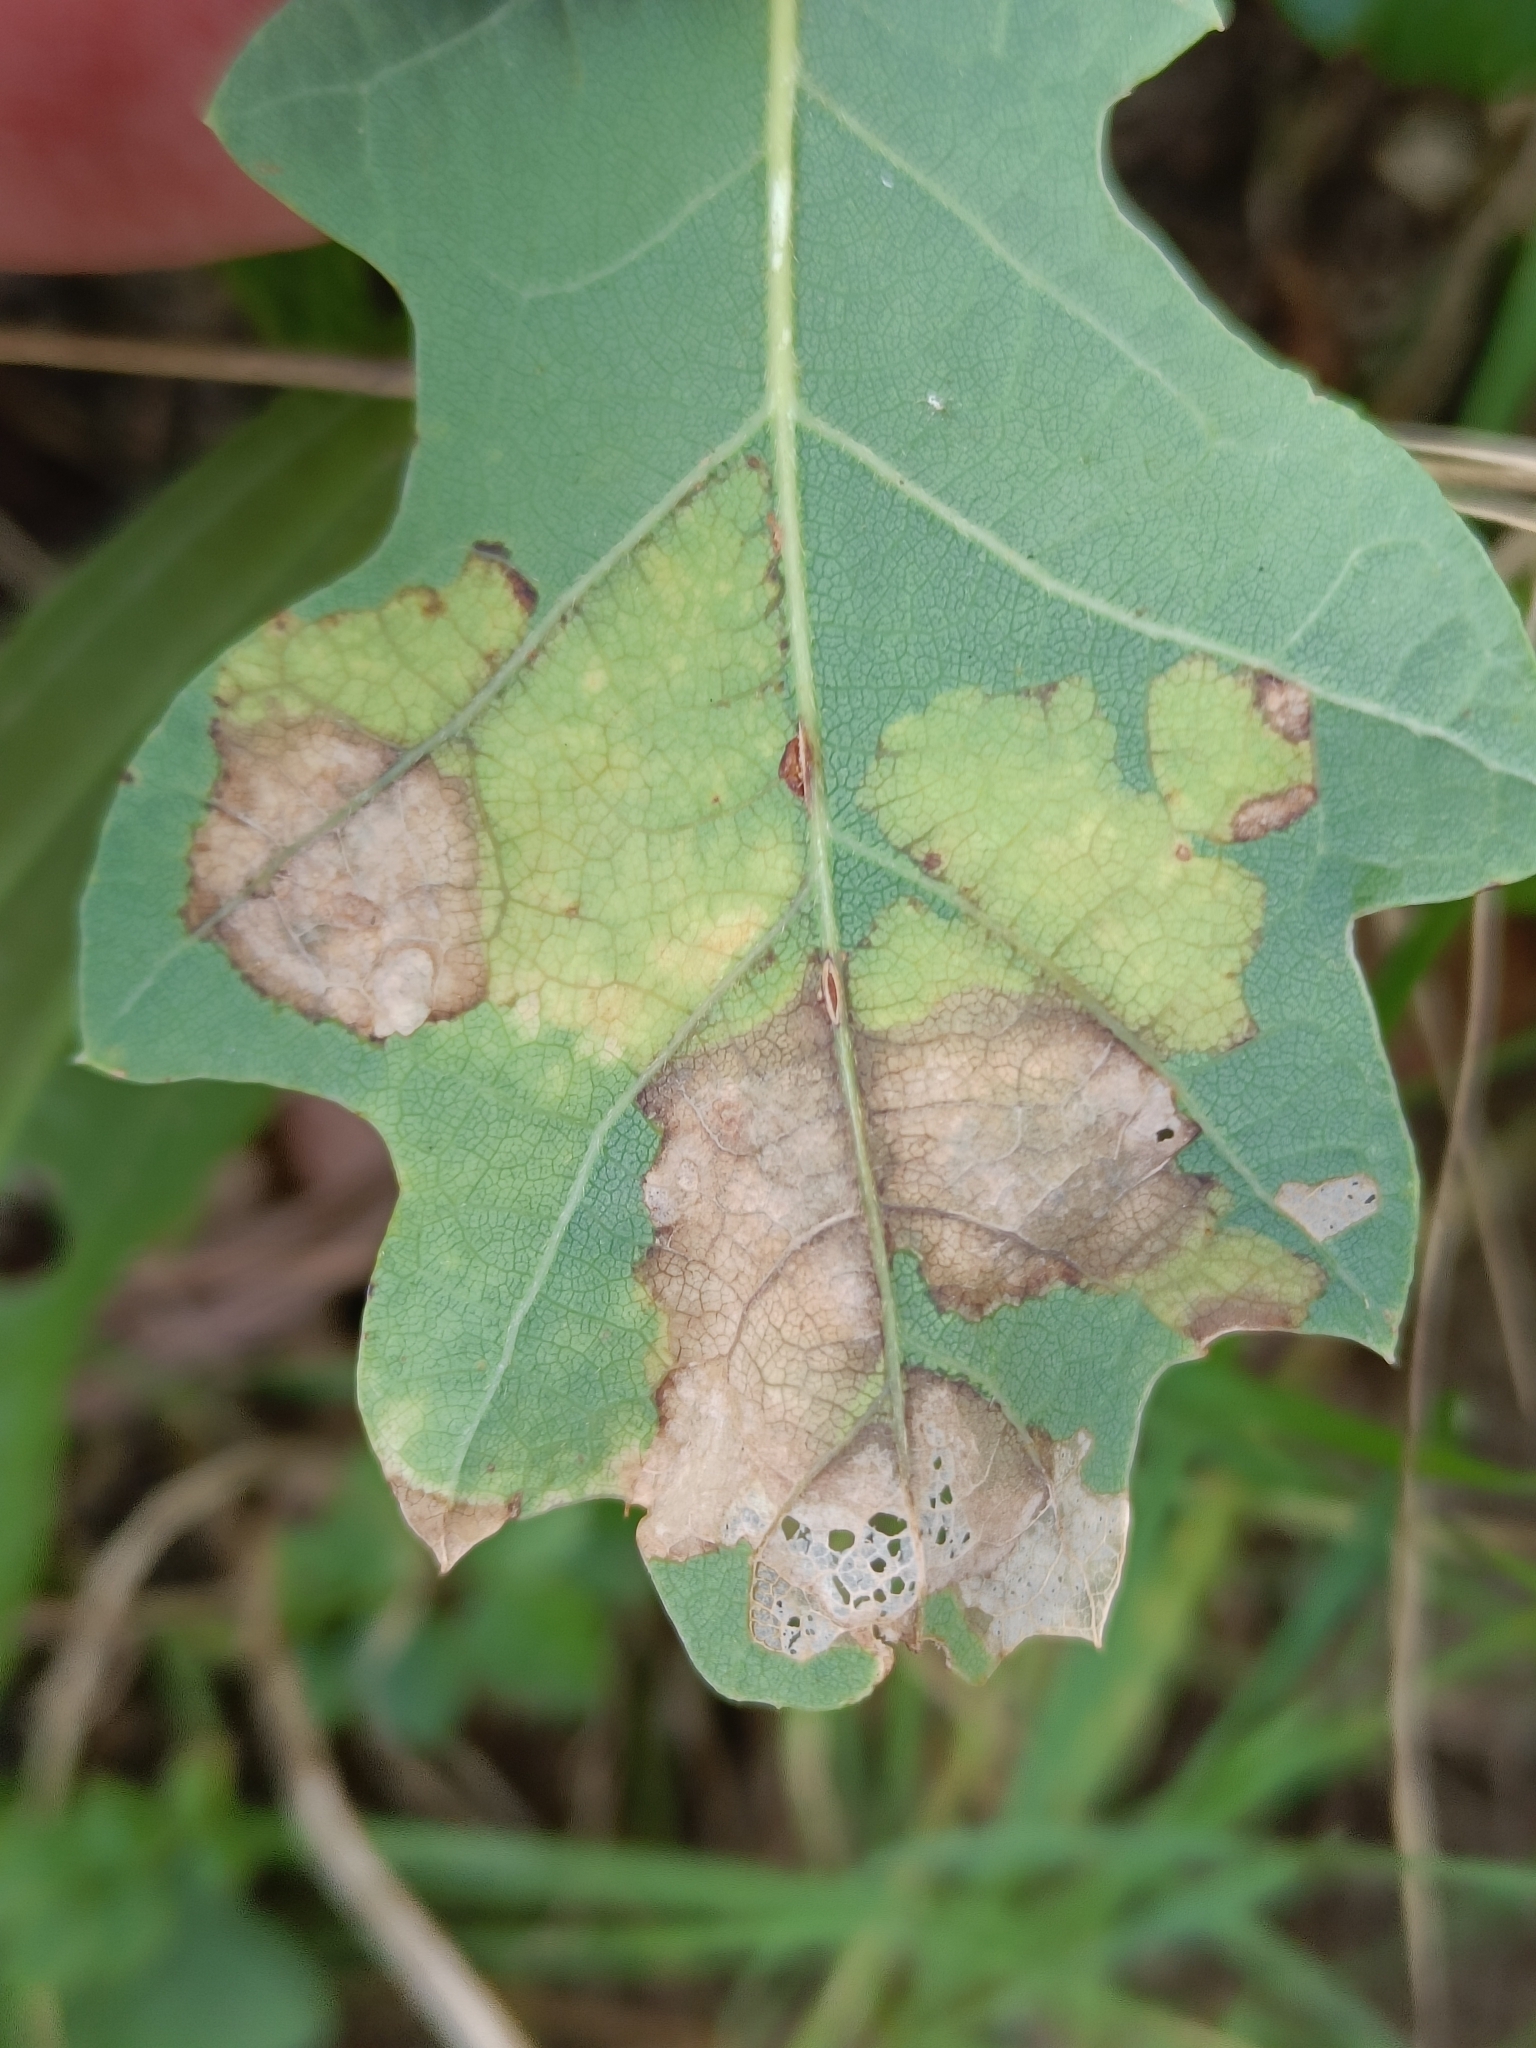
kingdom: Animalia
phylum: Arthropoda
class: Insecta
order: Lepidoptera
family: Tischeriidae
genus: Tischeria
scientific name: Tischeria ekebladella
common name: Oak carl
